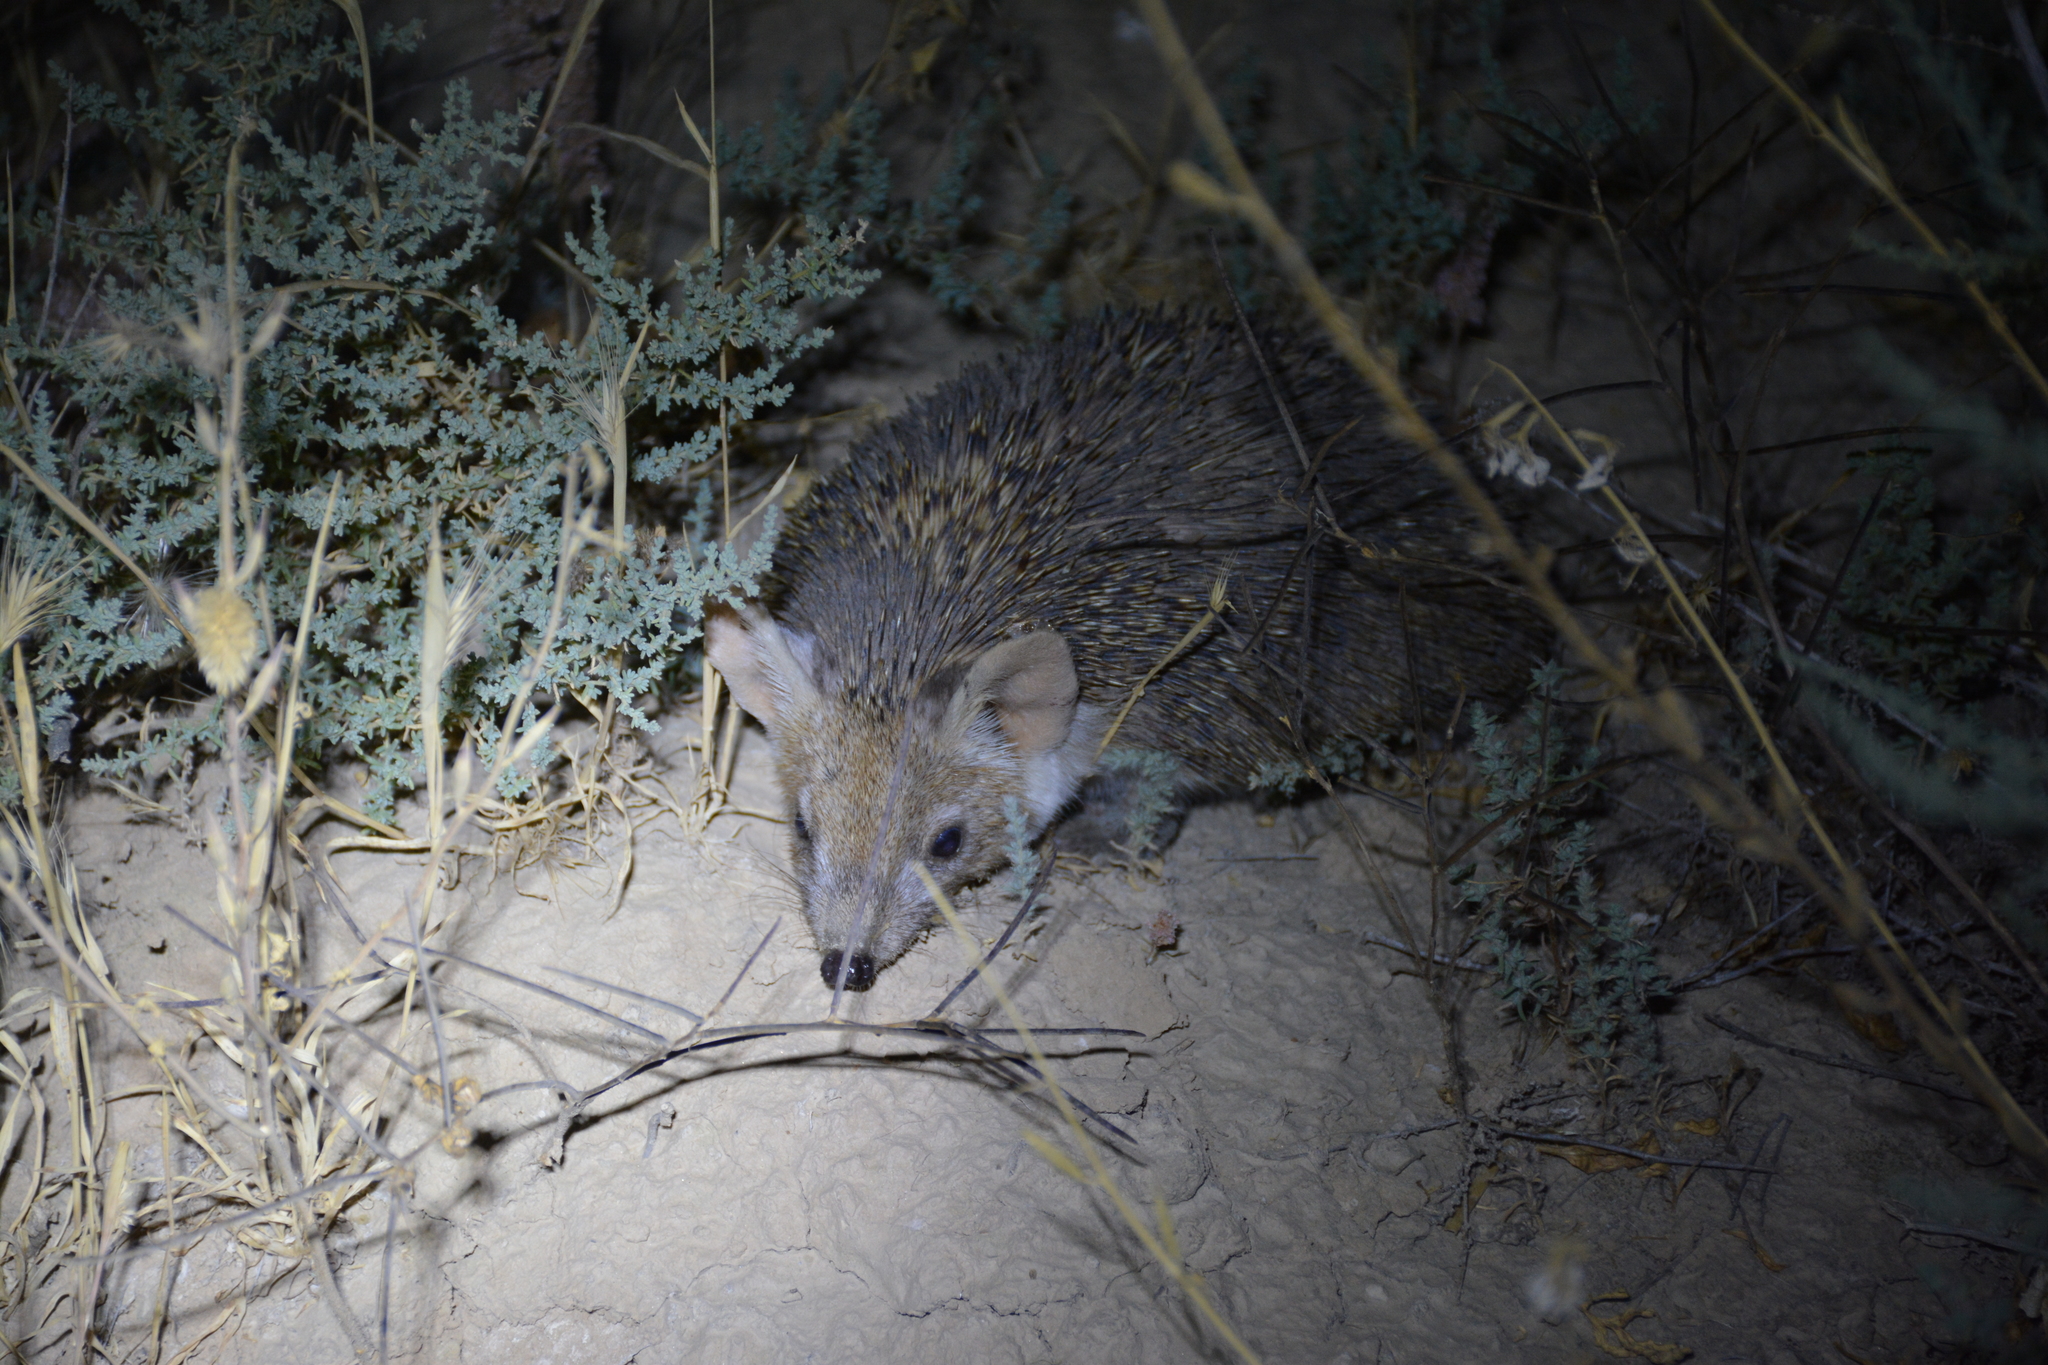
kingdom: Animalia
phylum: Chordata
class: Mammalia
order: Erinaceomorpha
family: Erinaceidae
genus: Hemiechinus
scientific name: Hemiechinus auritus
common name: Long-eared hedgehog
